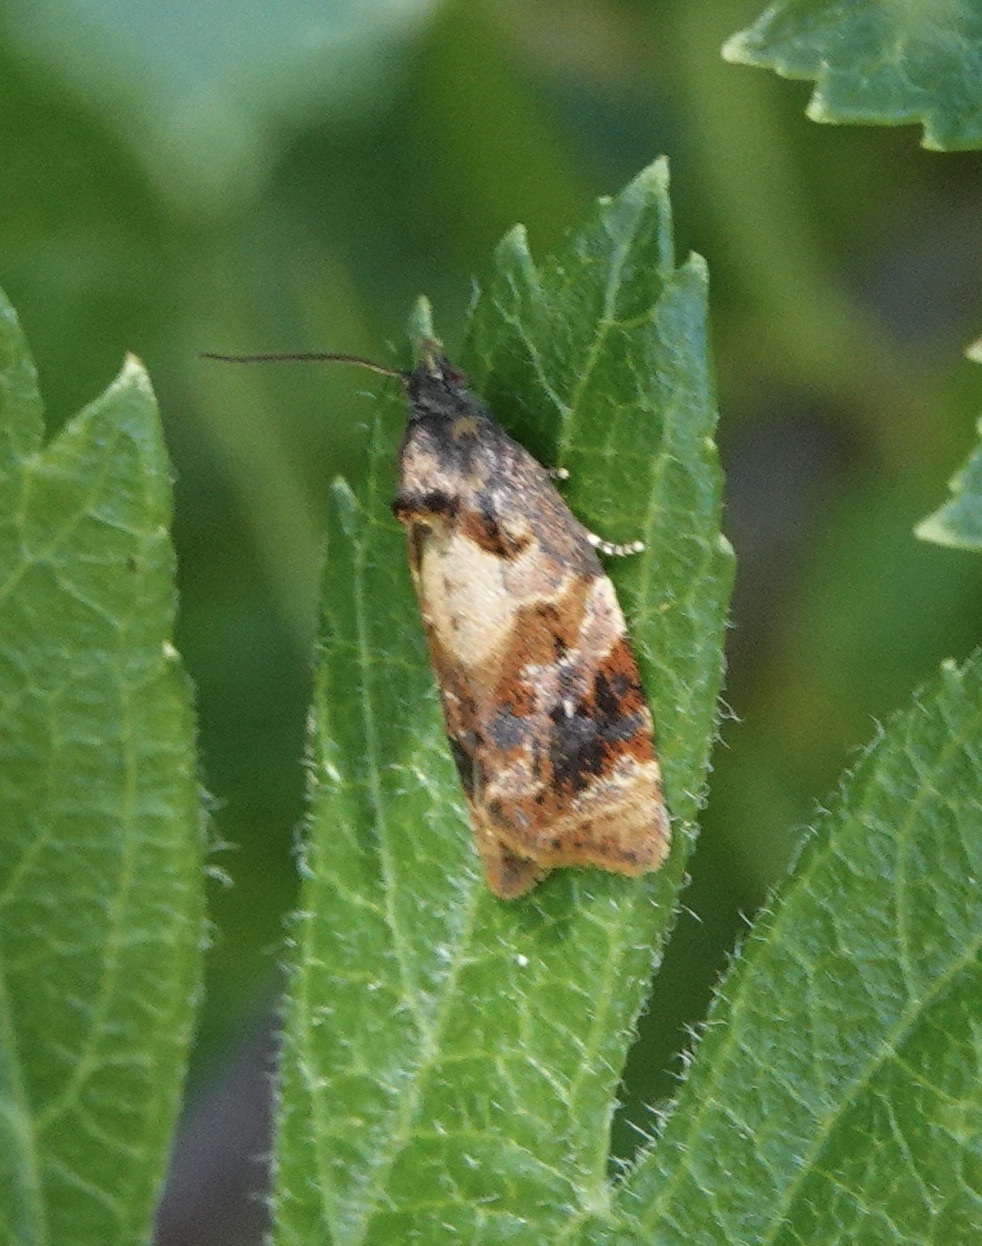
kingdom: Animalia
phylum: Arthropoda
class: Insecta
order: Lepidoptera
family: Tortricidae
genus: Ditula
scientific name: Ditula angustiorana
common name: Red-barred tortrix
